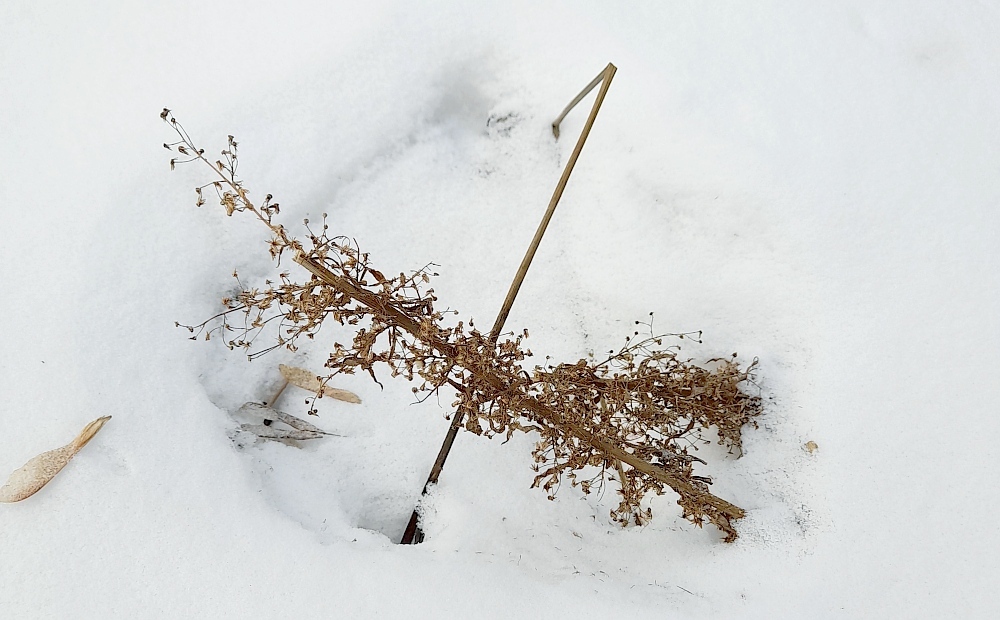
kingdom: Plantae
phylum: Tracheophyta
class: Magnoliopsida
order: Asterales
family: Asteraceae
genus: Erigeron
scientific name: Erigeron canadensis
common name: Canadian fleabane
